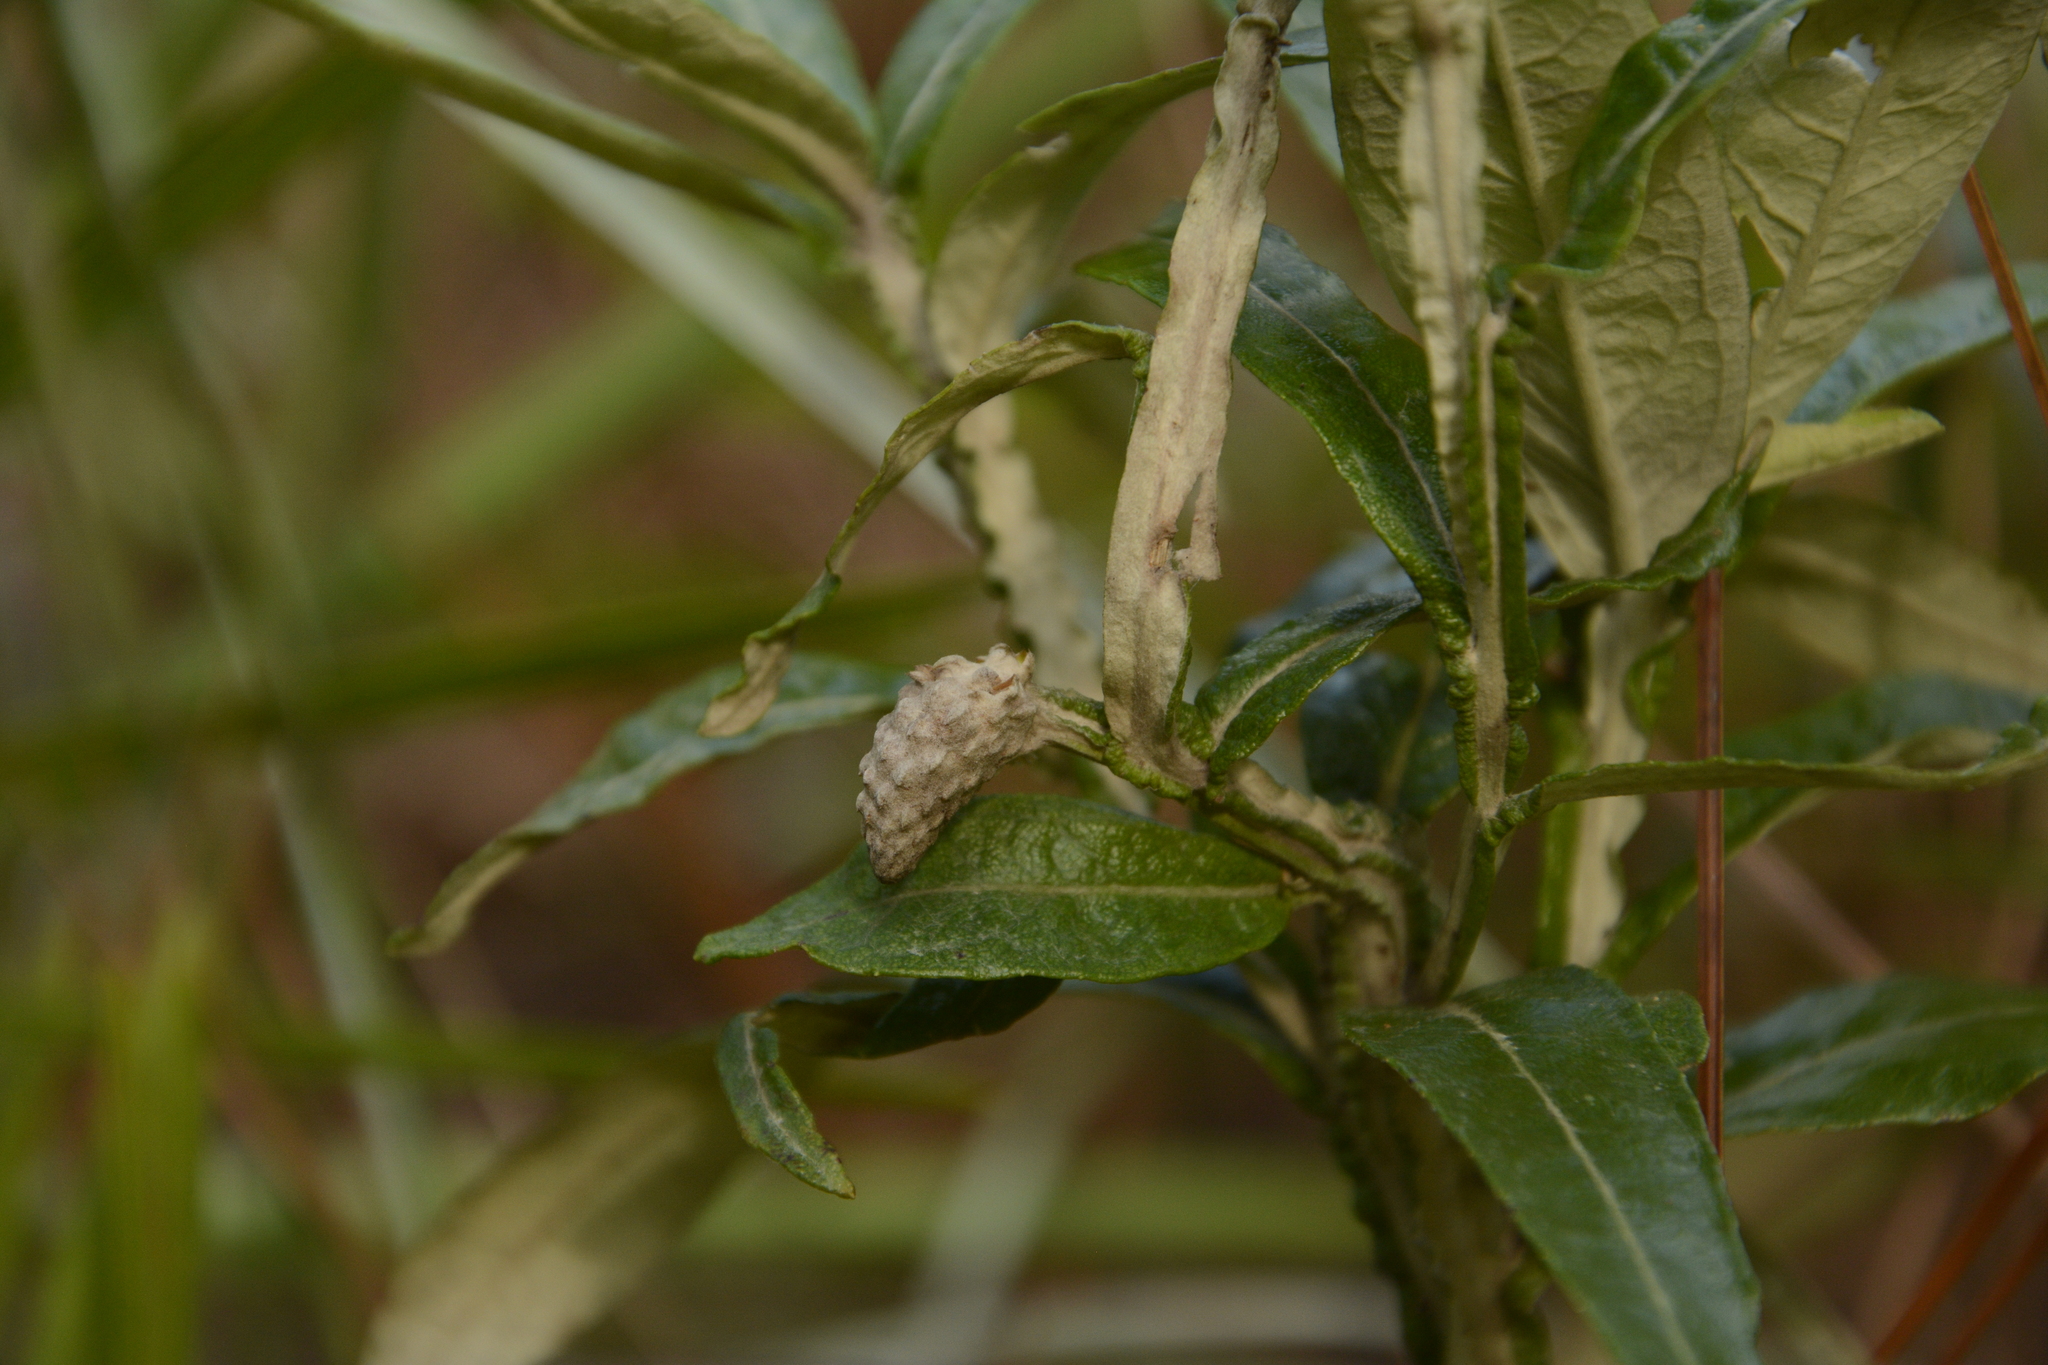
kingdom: Plantae
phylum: Tracheophyta
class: Magnoliopsida
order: Asterales
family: Asteraceae
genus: Pterocaulon
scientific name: Pterocaulon pycnostachyum
